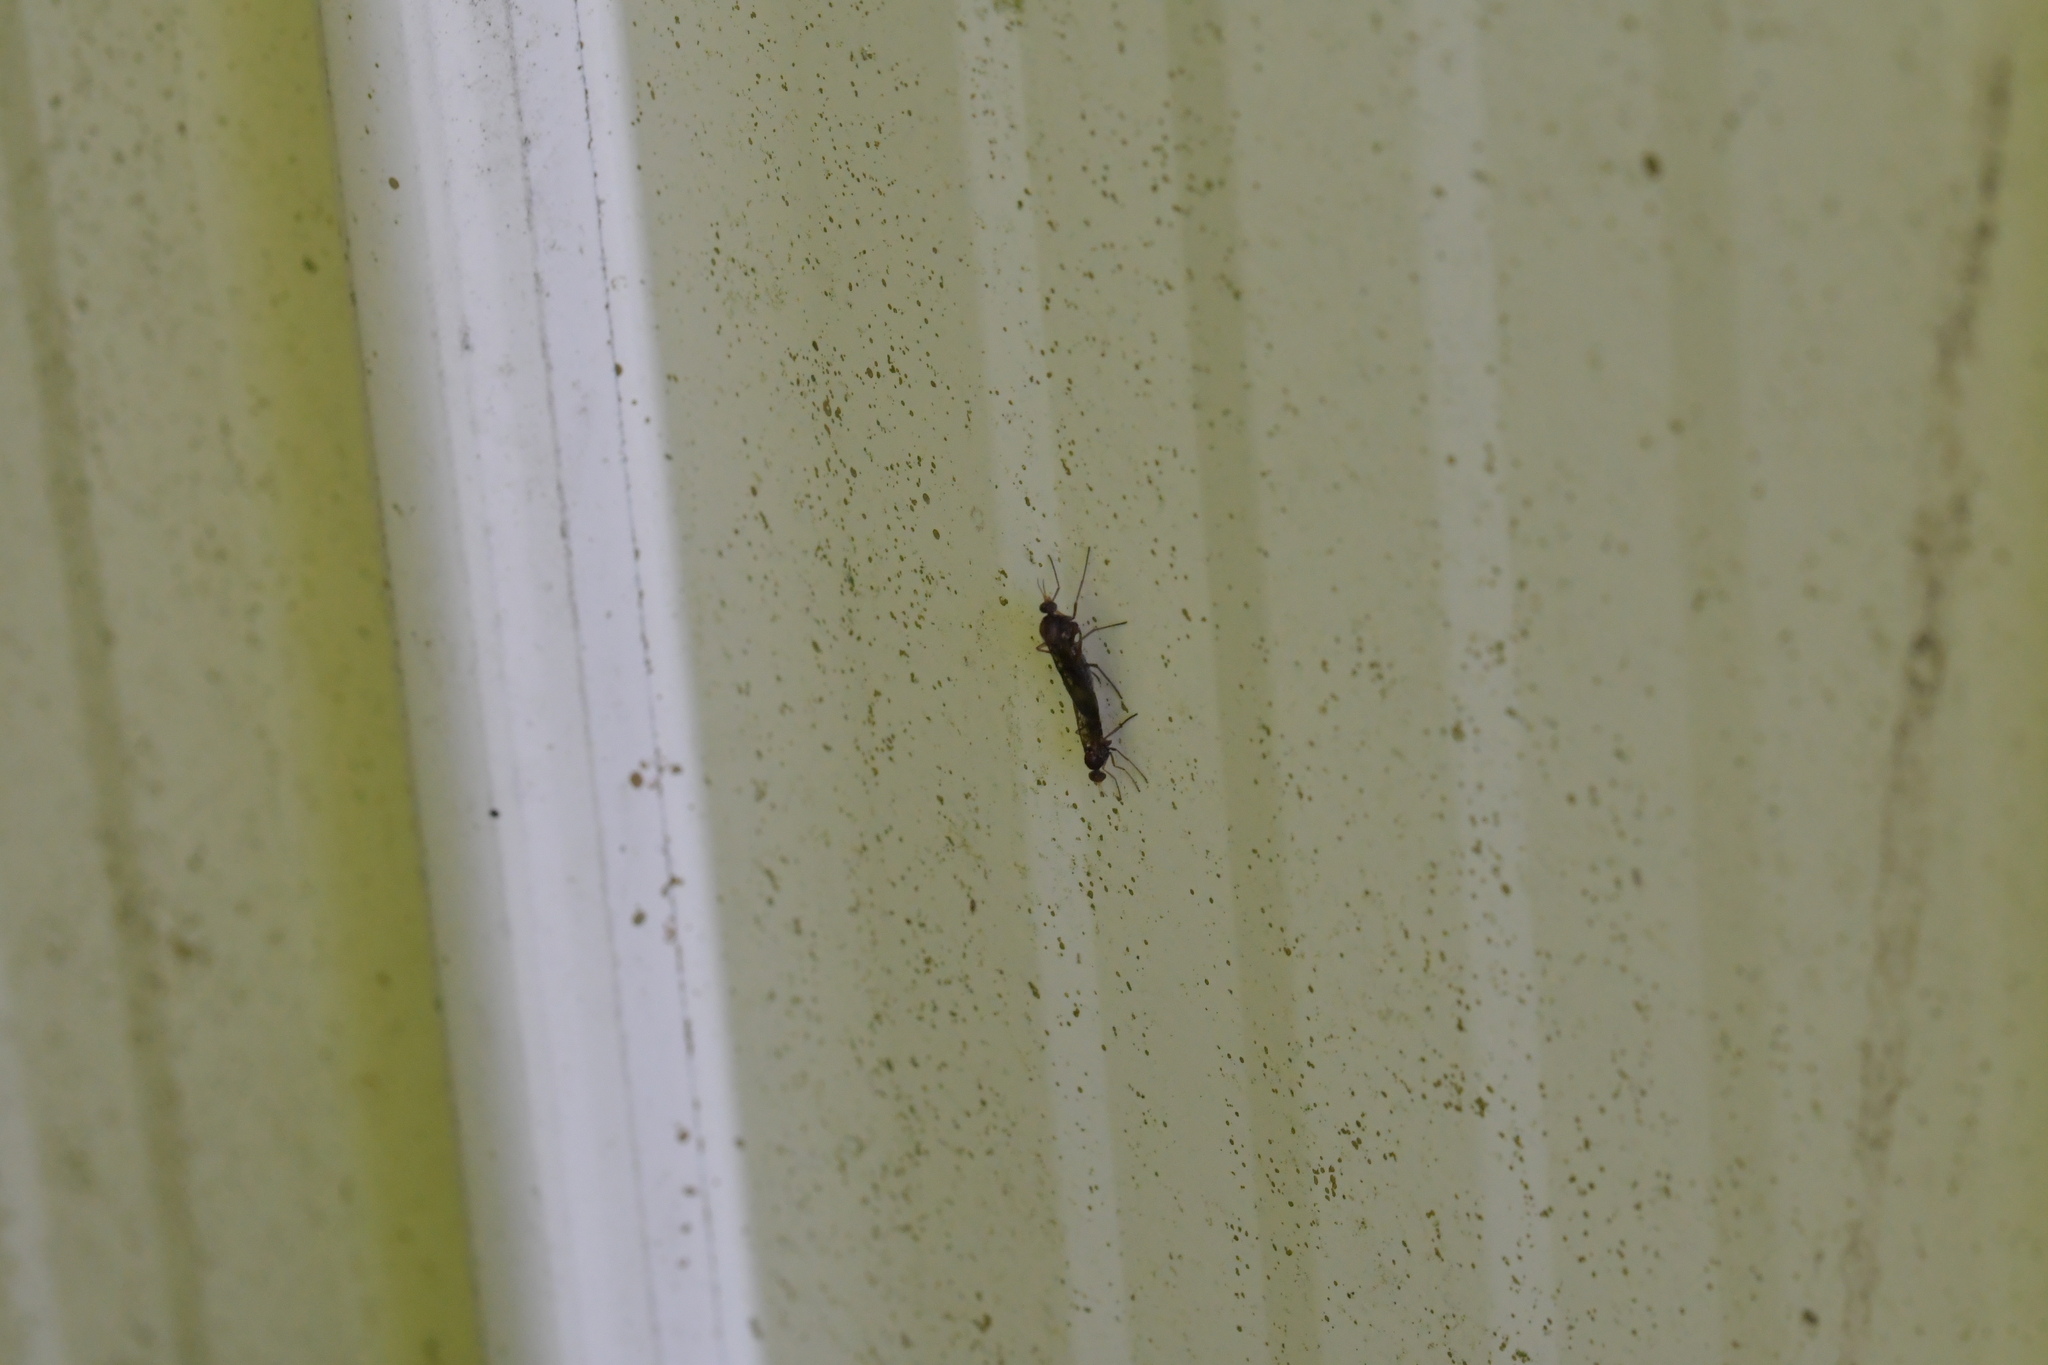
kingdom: Animalia
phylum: Arthropoda
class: Insecta
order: Diptera
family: Anisopodidae
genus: Sylvicola
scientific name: Sylvicola neozelandicus
